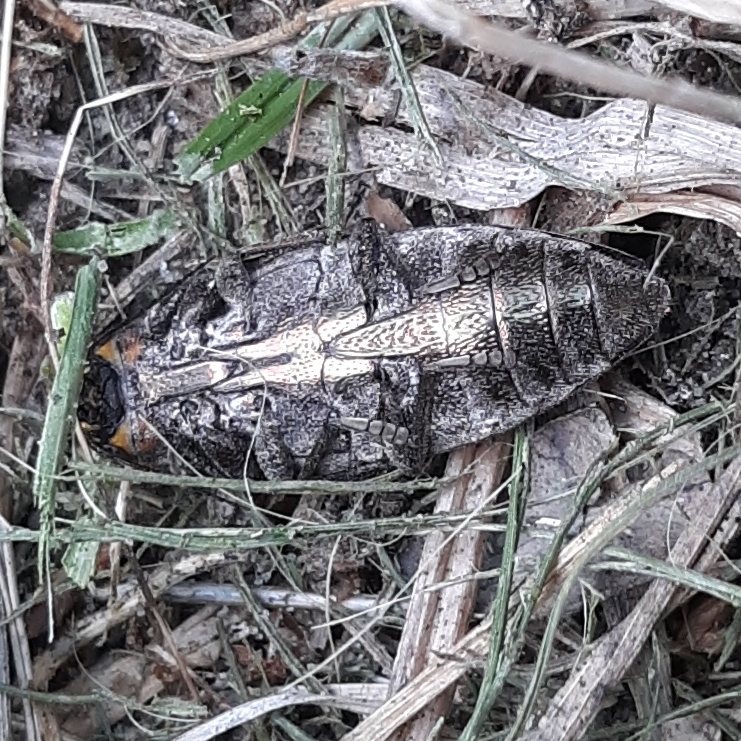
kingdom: Animalia
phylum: Arthropoda
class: Insecta
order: Coleoptera
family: Buprestidae
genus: Buprestis
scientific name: Buprestis lineata
